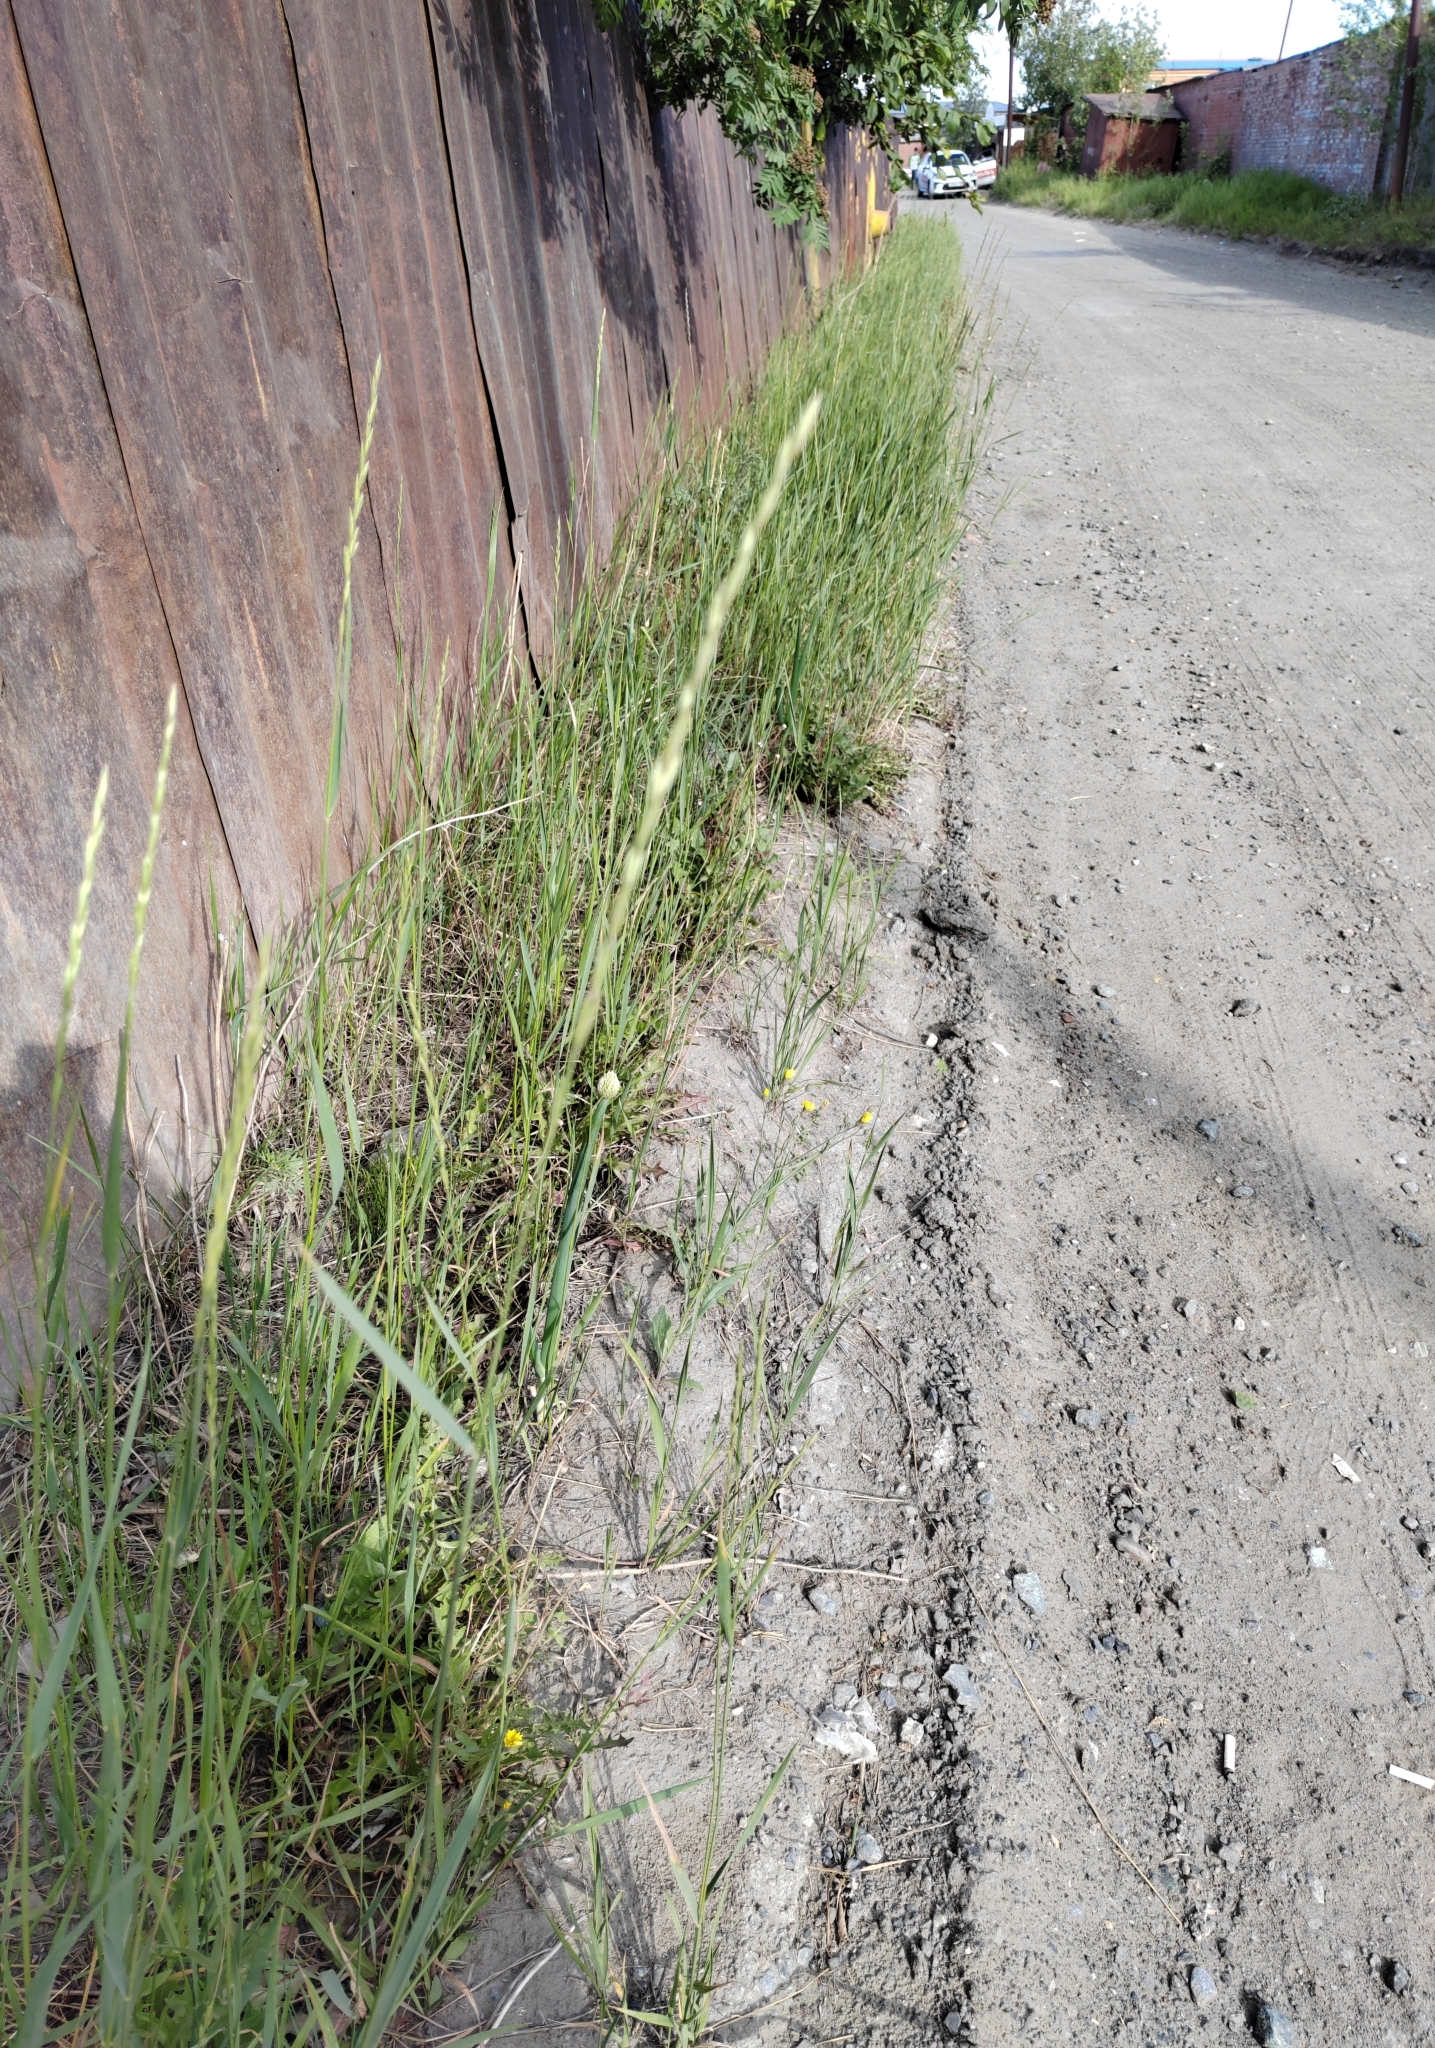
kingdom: Plantae
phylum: Tracheophyta
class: Liliopsida
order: Asparagales
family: Amaryllidaceae
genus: Allium
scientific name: Allium fistulosum
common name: Welsh onion
